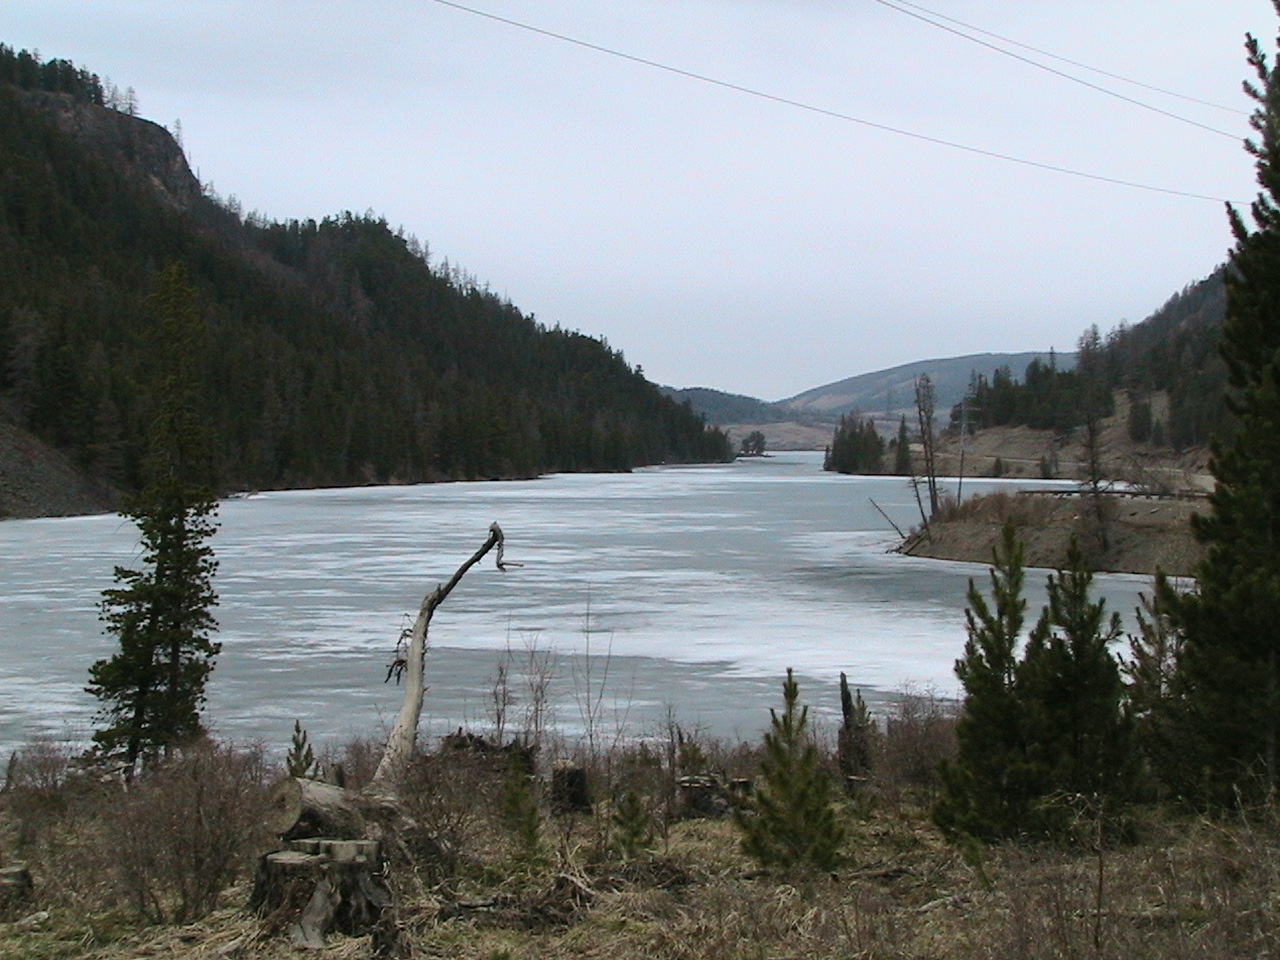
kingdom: Plantae
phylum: Tracheophyta
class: Pinopsida
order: Pinales
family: Pinaceae
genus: Pinus
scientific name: Pinus sibirica
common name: Siberian pine
